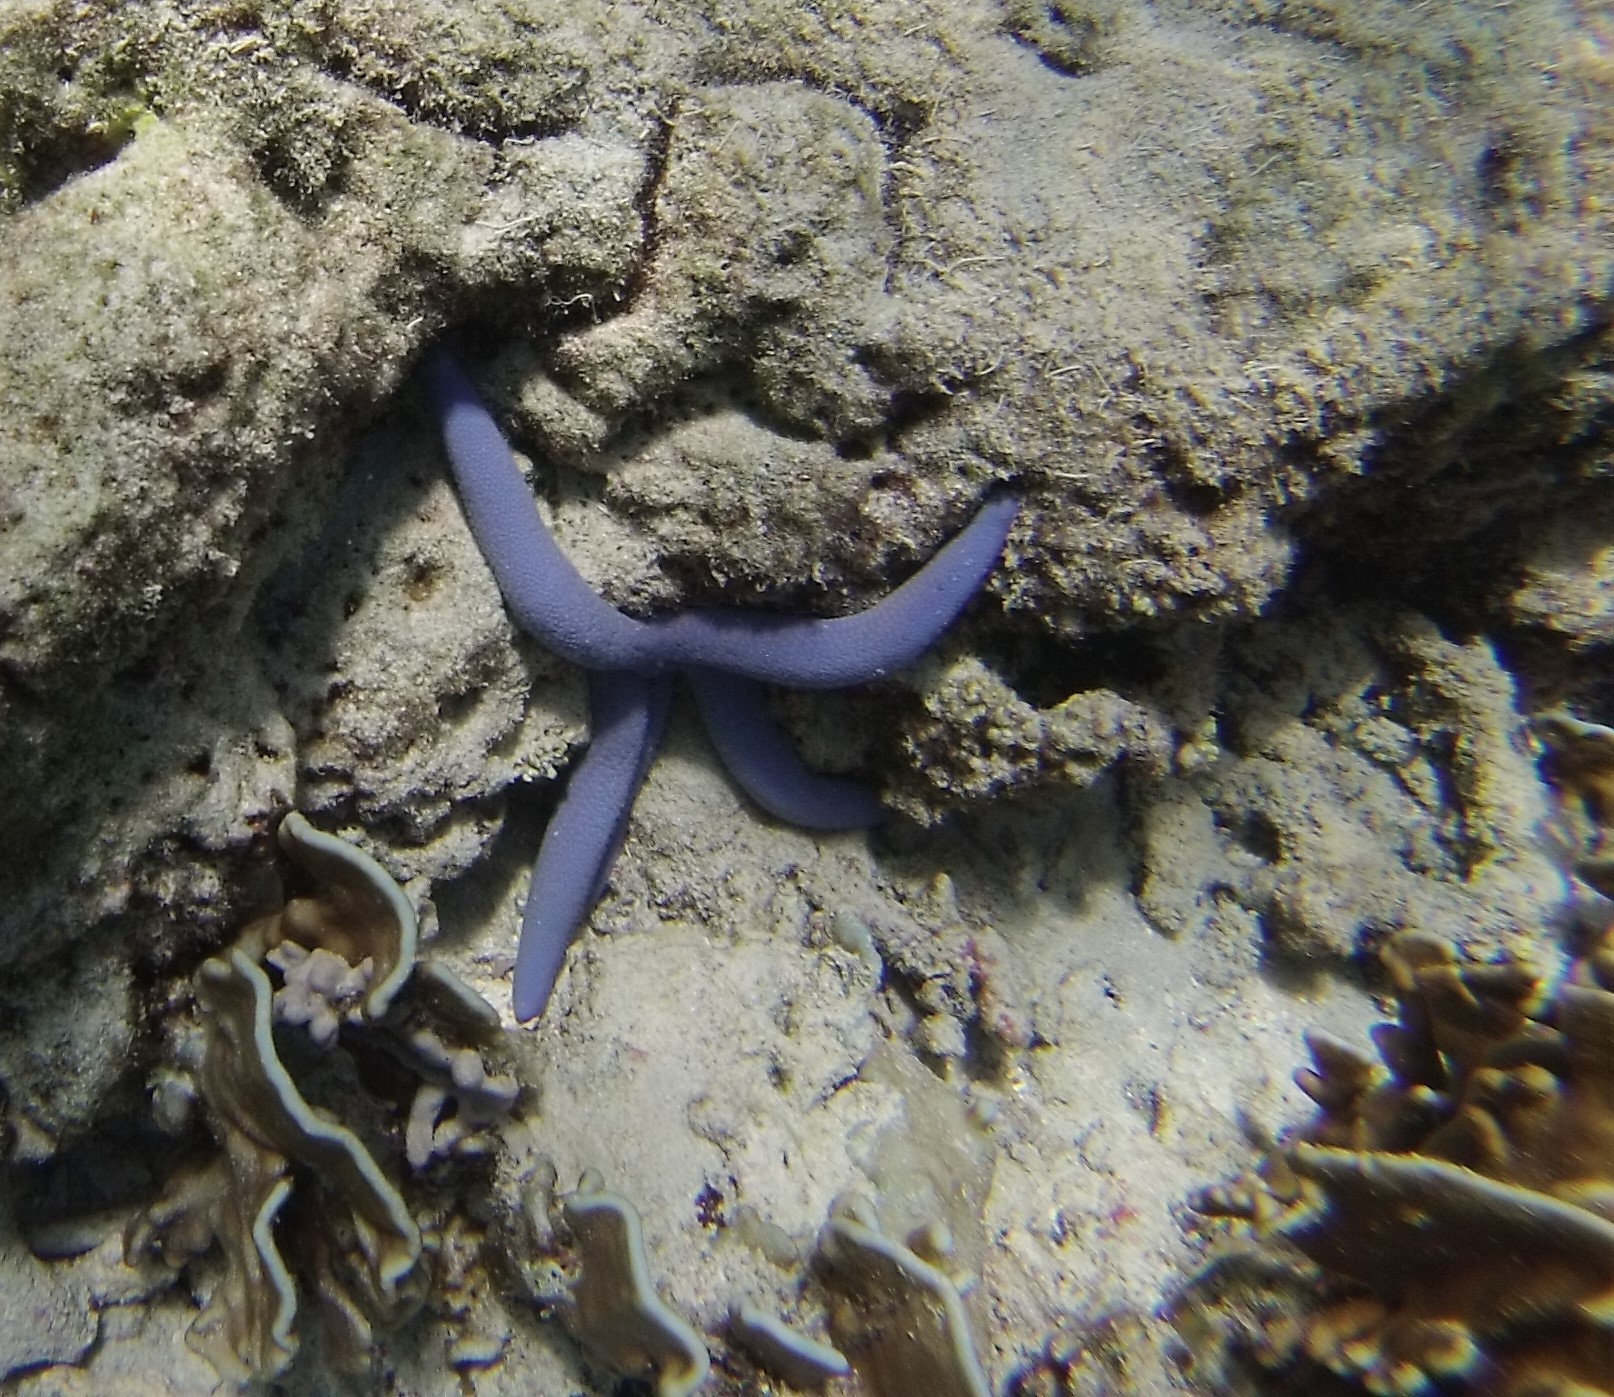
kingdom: Animalia
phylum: Echinodermata
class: Asteroidea
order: Valvatida
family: Ophidiasteridae
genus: Linckia
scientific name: Linckia laevigata
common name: Azure sea star
